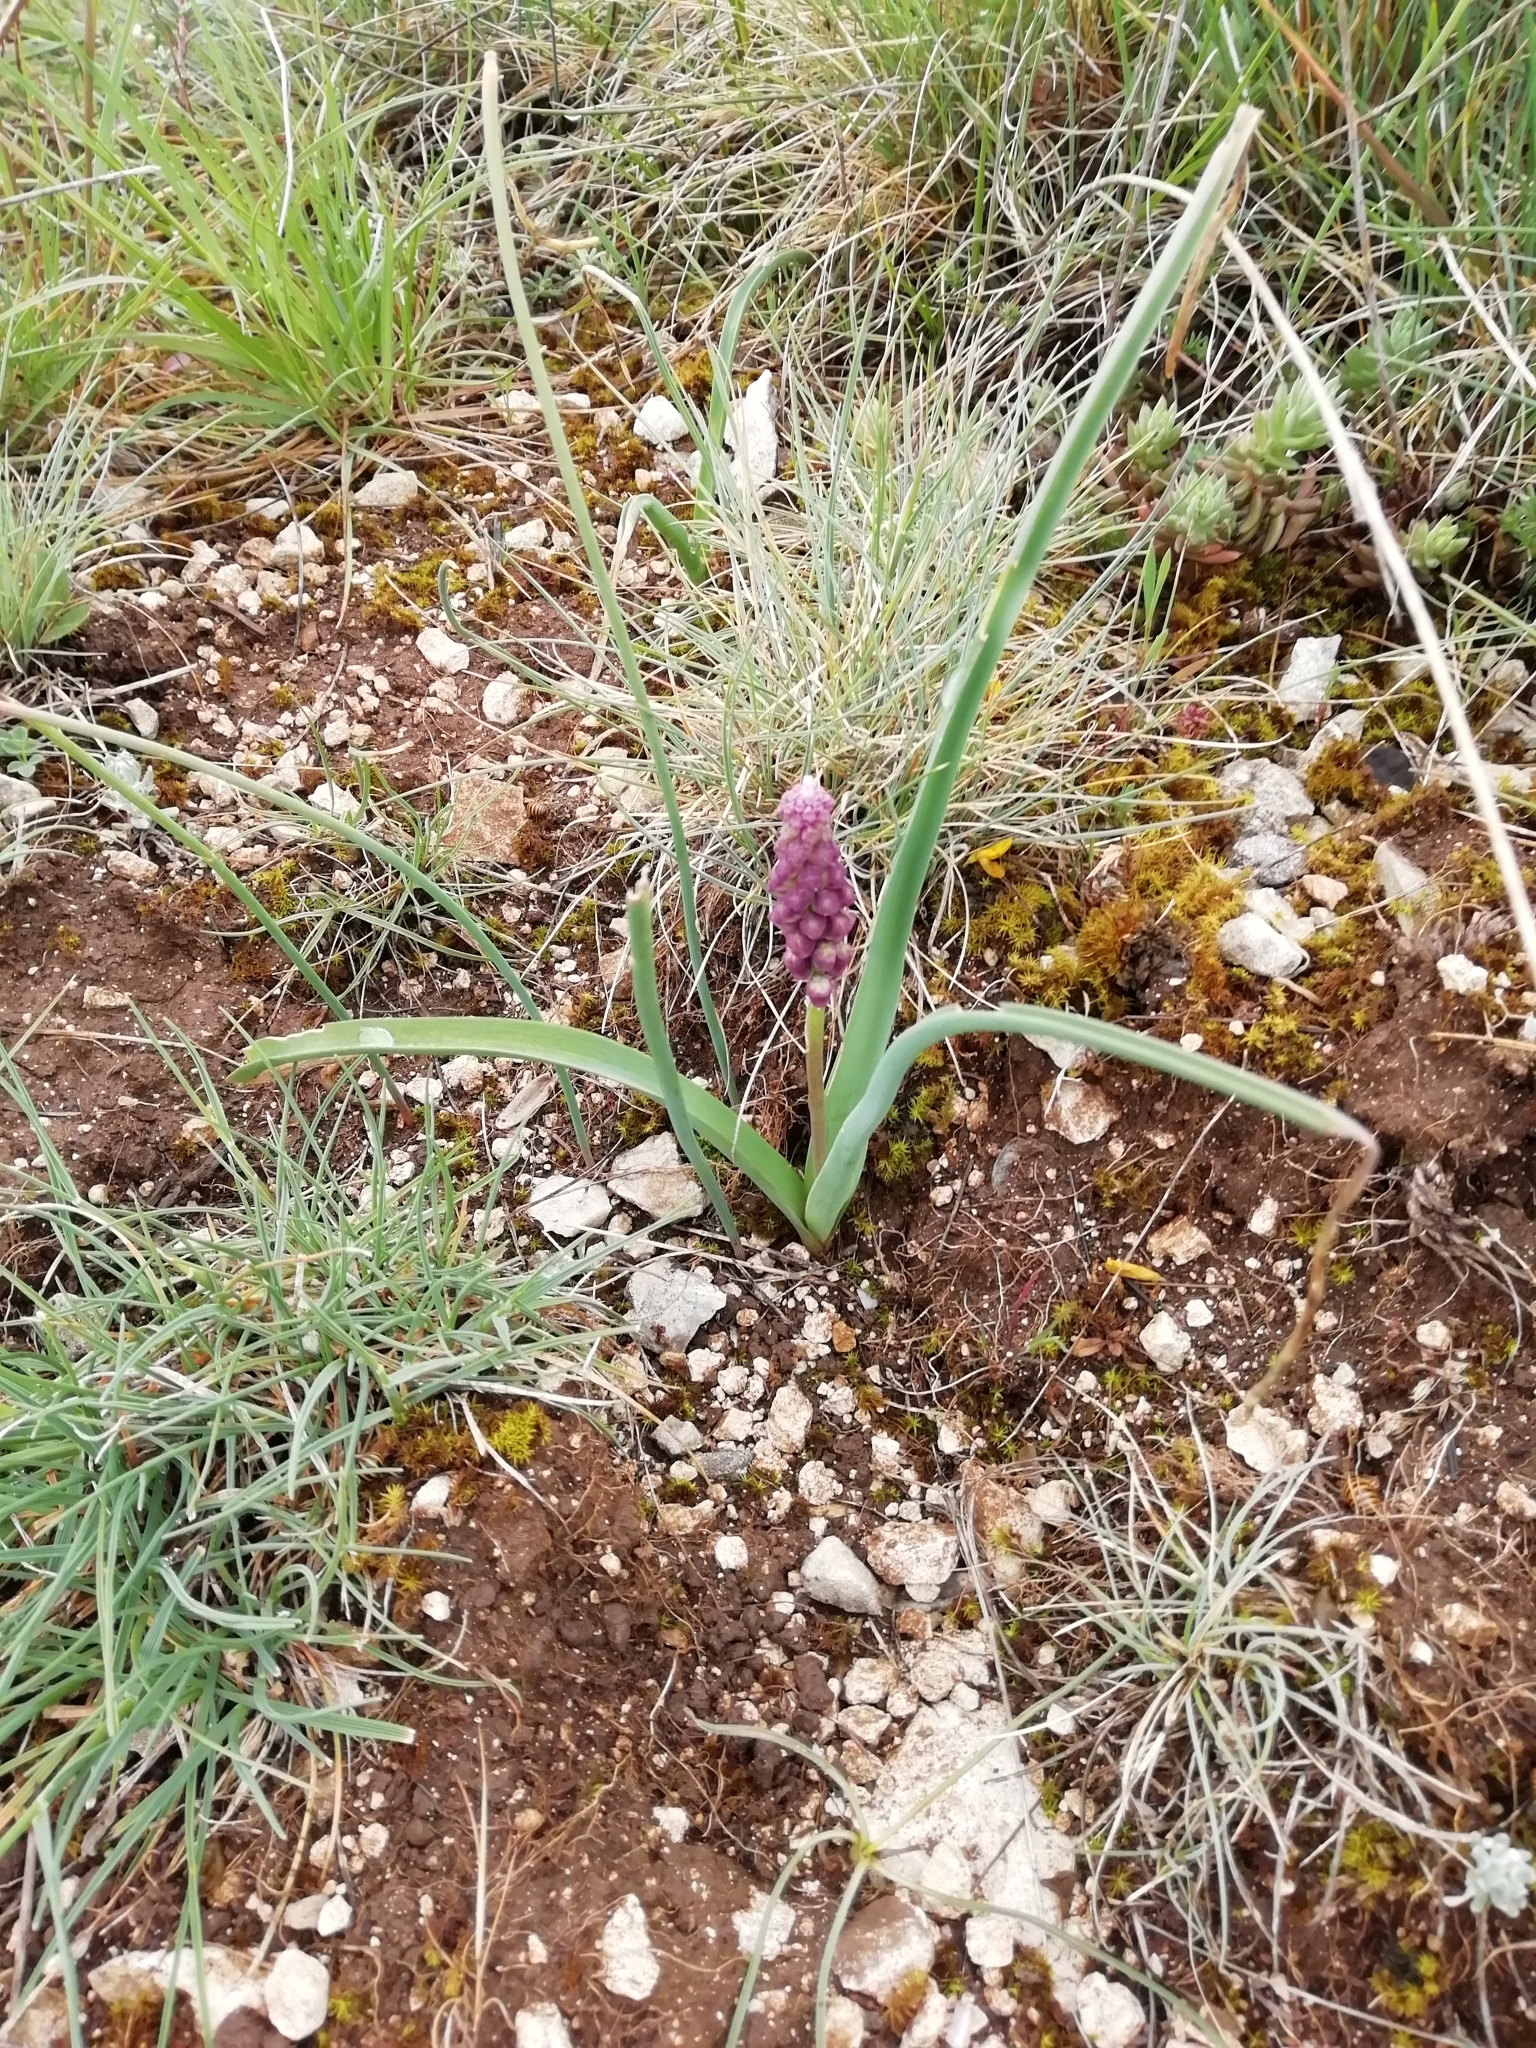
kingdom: Plantae
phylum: Tracheophyta
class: Liliopsida
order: Asparagales
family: Asparagaceae
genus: Muscari
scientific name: Muscari comosum
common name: Tassel hyacinth
